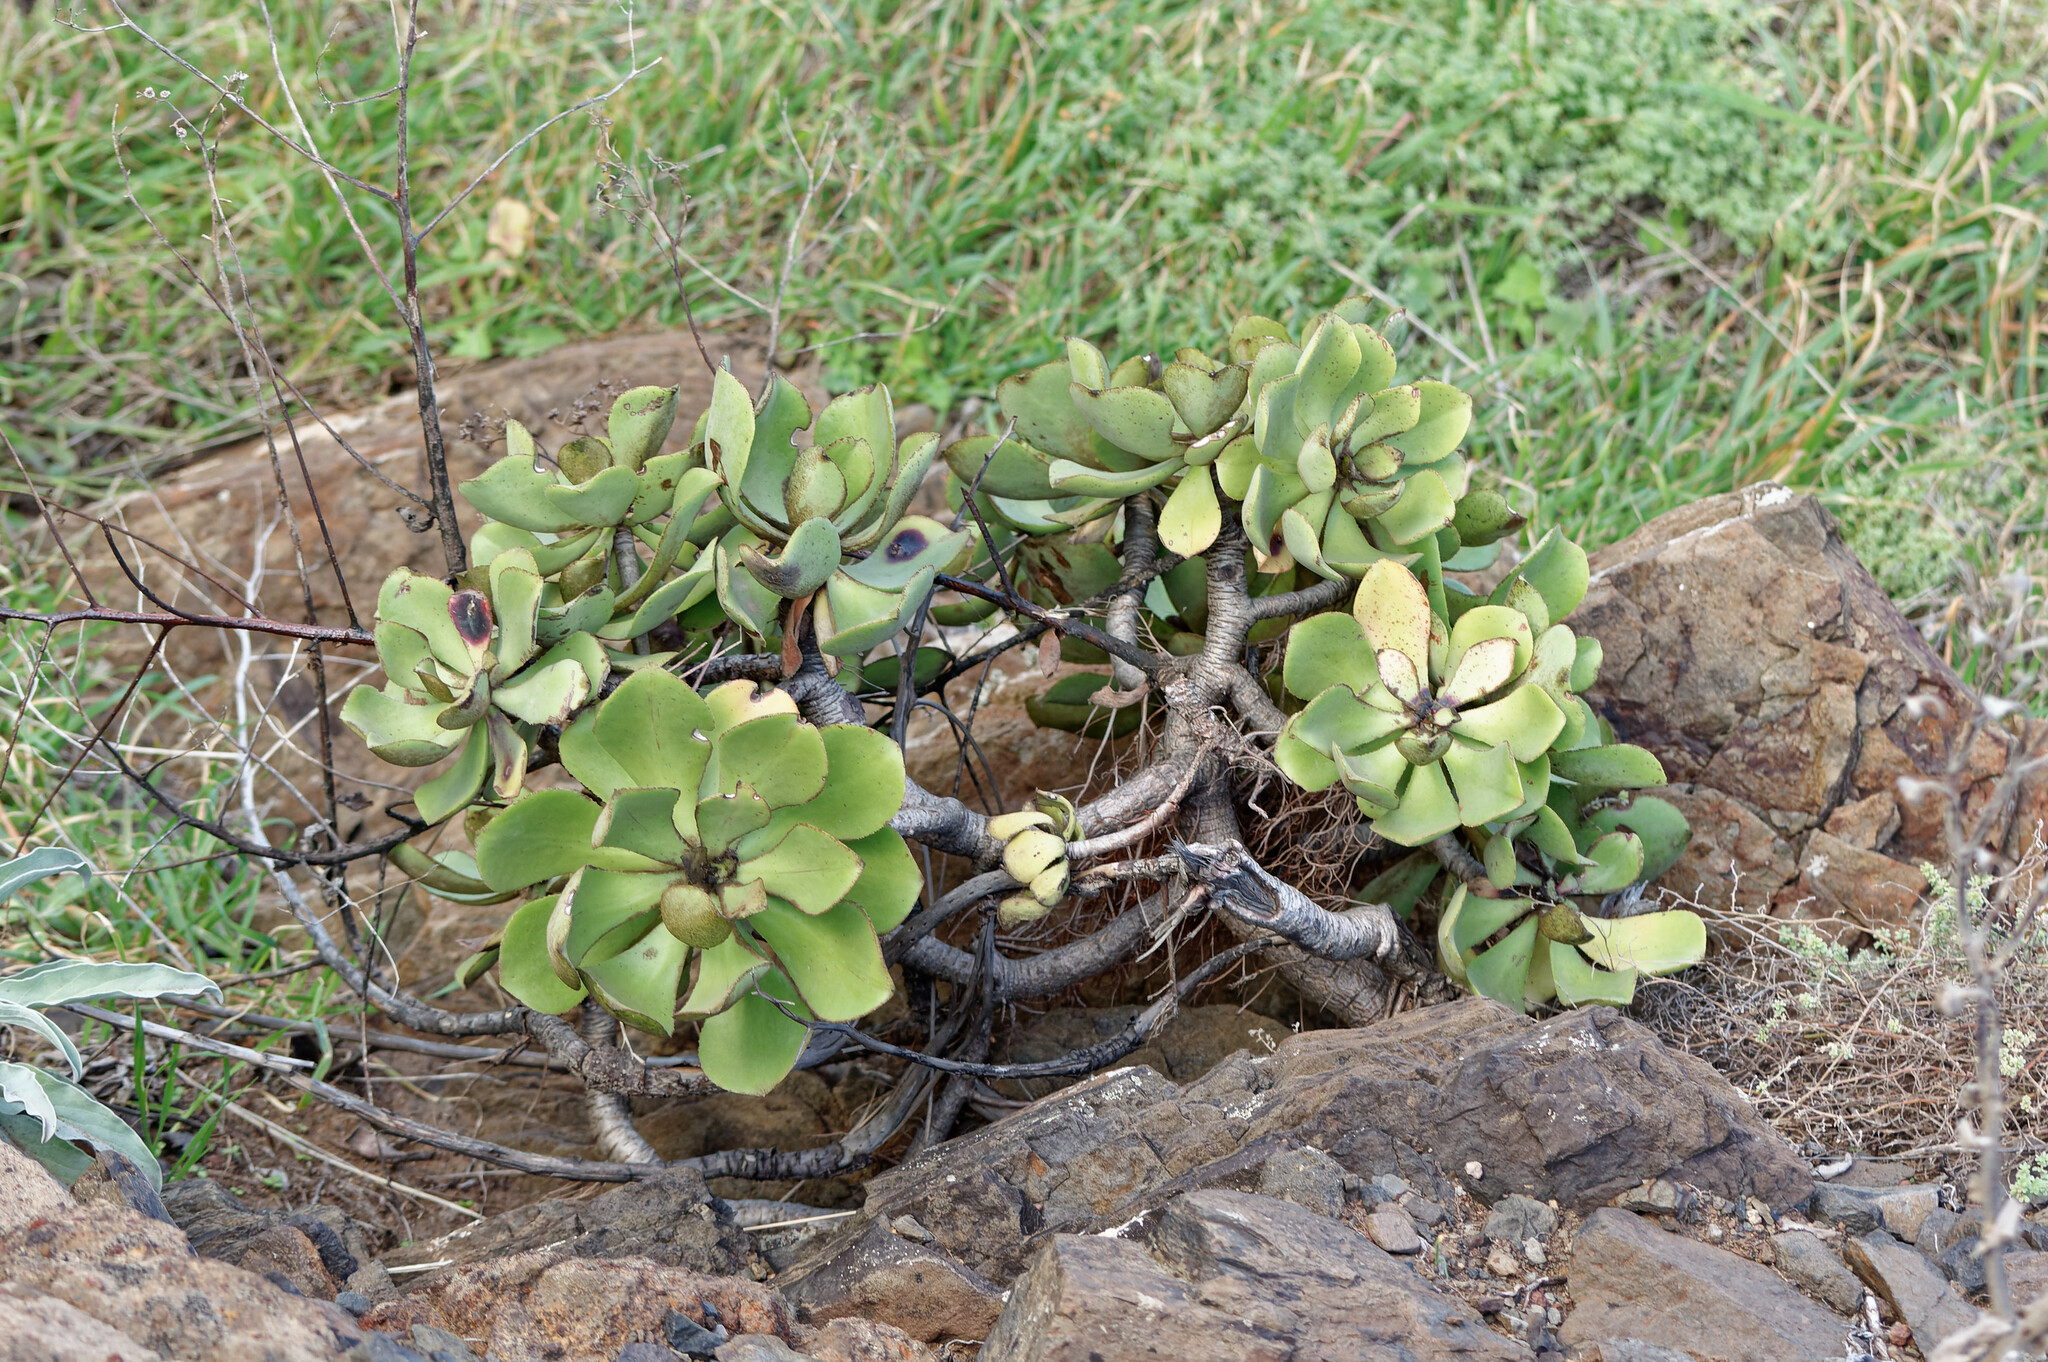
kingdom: Plantae
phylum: Tracheophyta
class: Magnoliopsida
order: Saxifragales
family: Crassulaceae
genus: Aeonium
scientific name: Aeonium glutinosum
